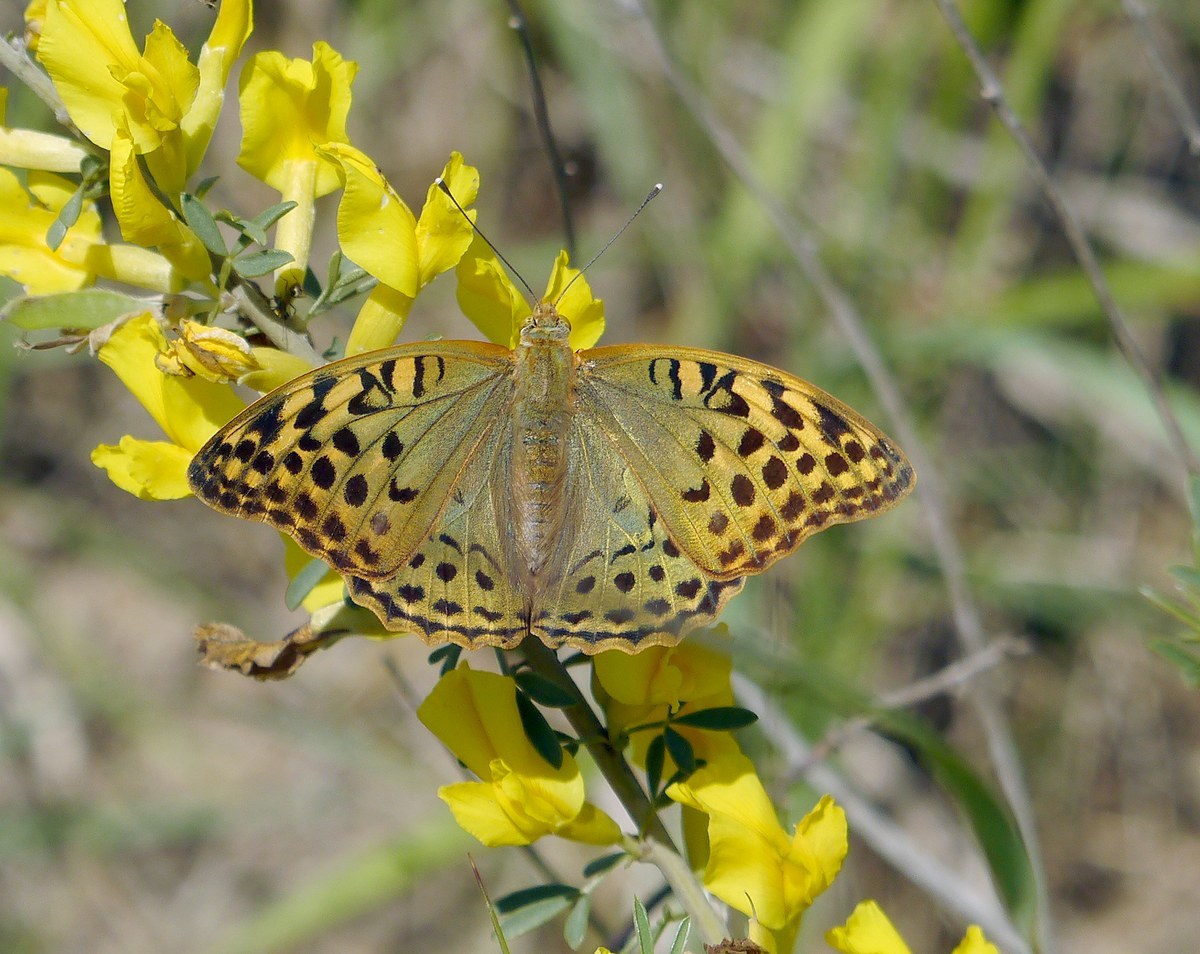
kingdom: Animalia
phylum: Arthropoda
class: Insecta
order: Lepidoptera
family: Nymphalidae
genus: Damora
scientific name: Damora pandora
